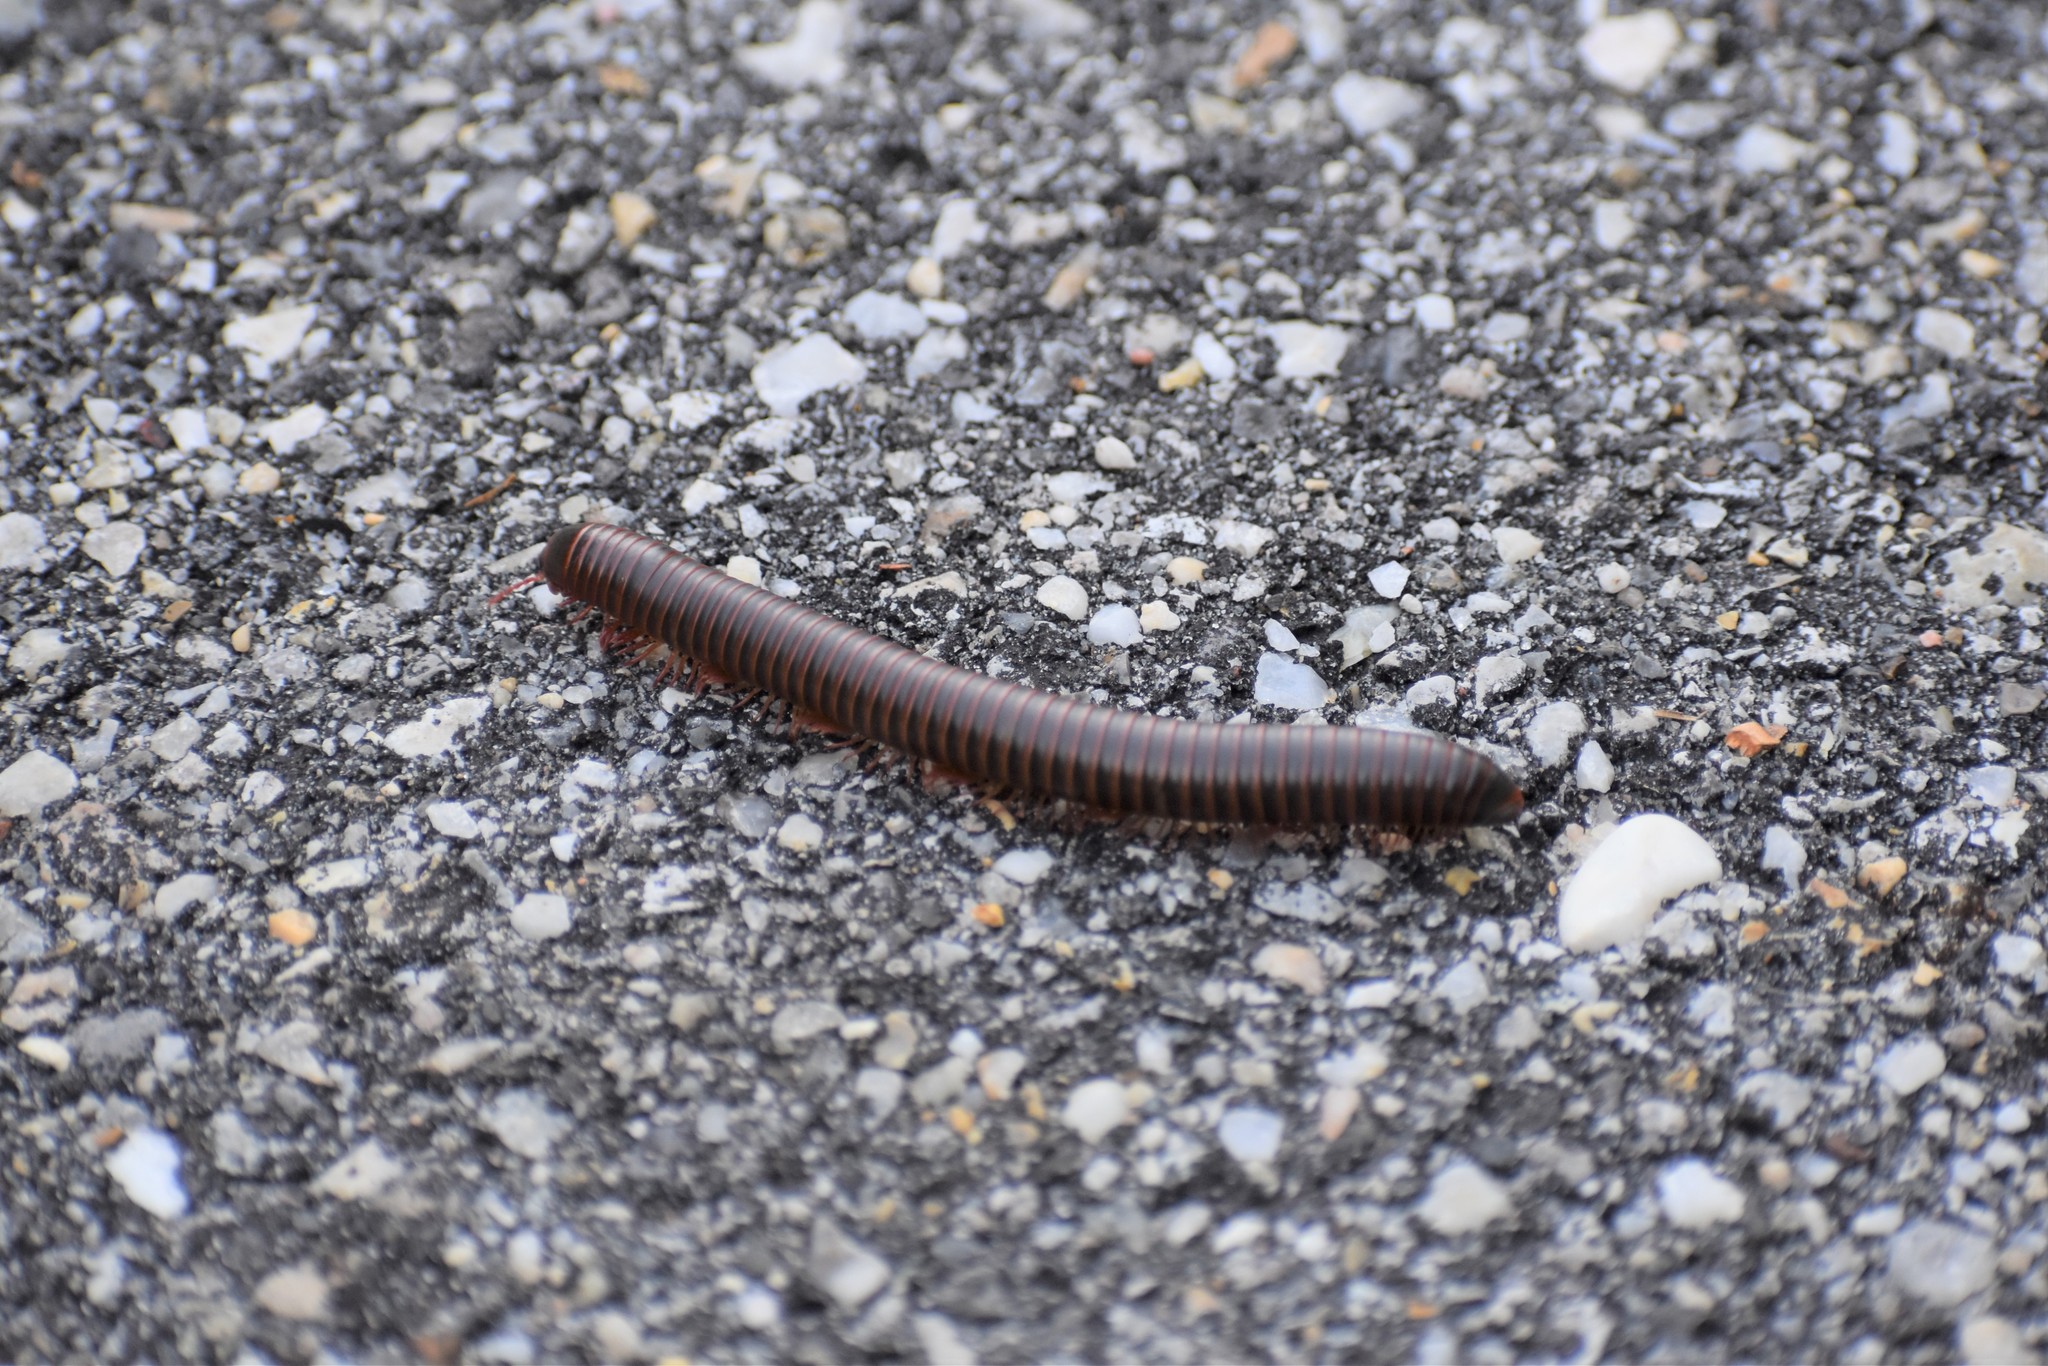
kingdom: Animalia
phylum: Arthropoda
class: Diplopoda
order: Spirobolida
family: Spirobolidae
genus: Narceus
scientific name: Narceus
